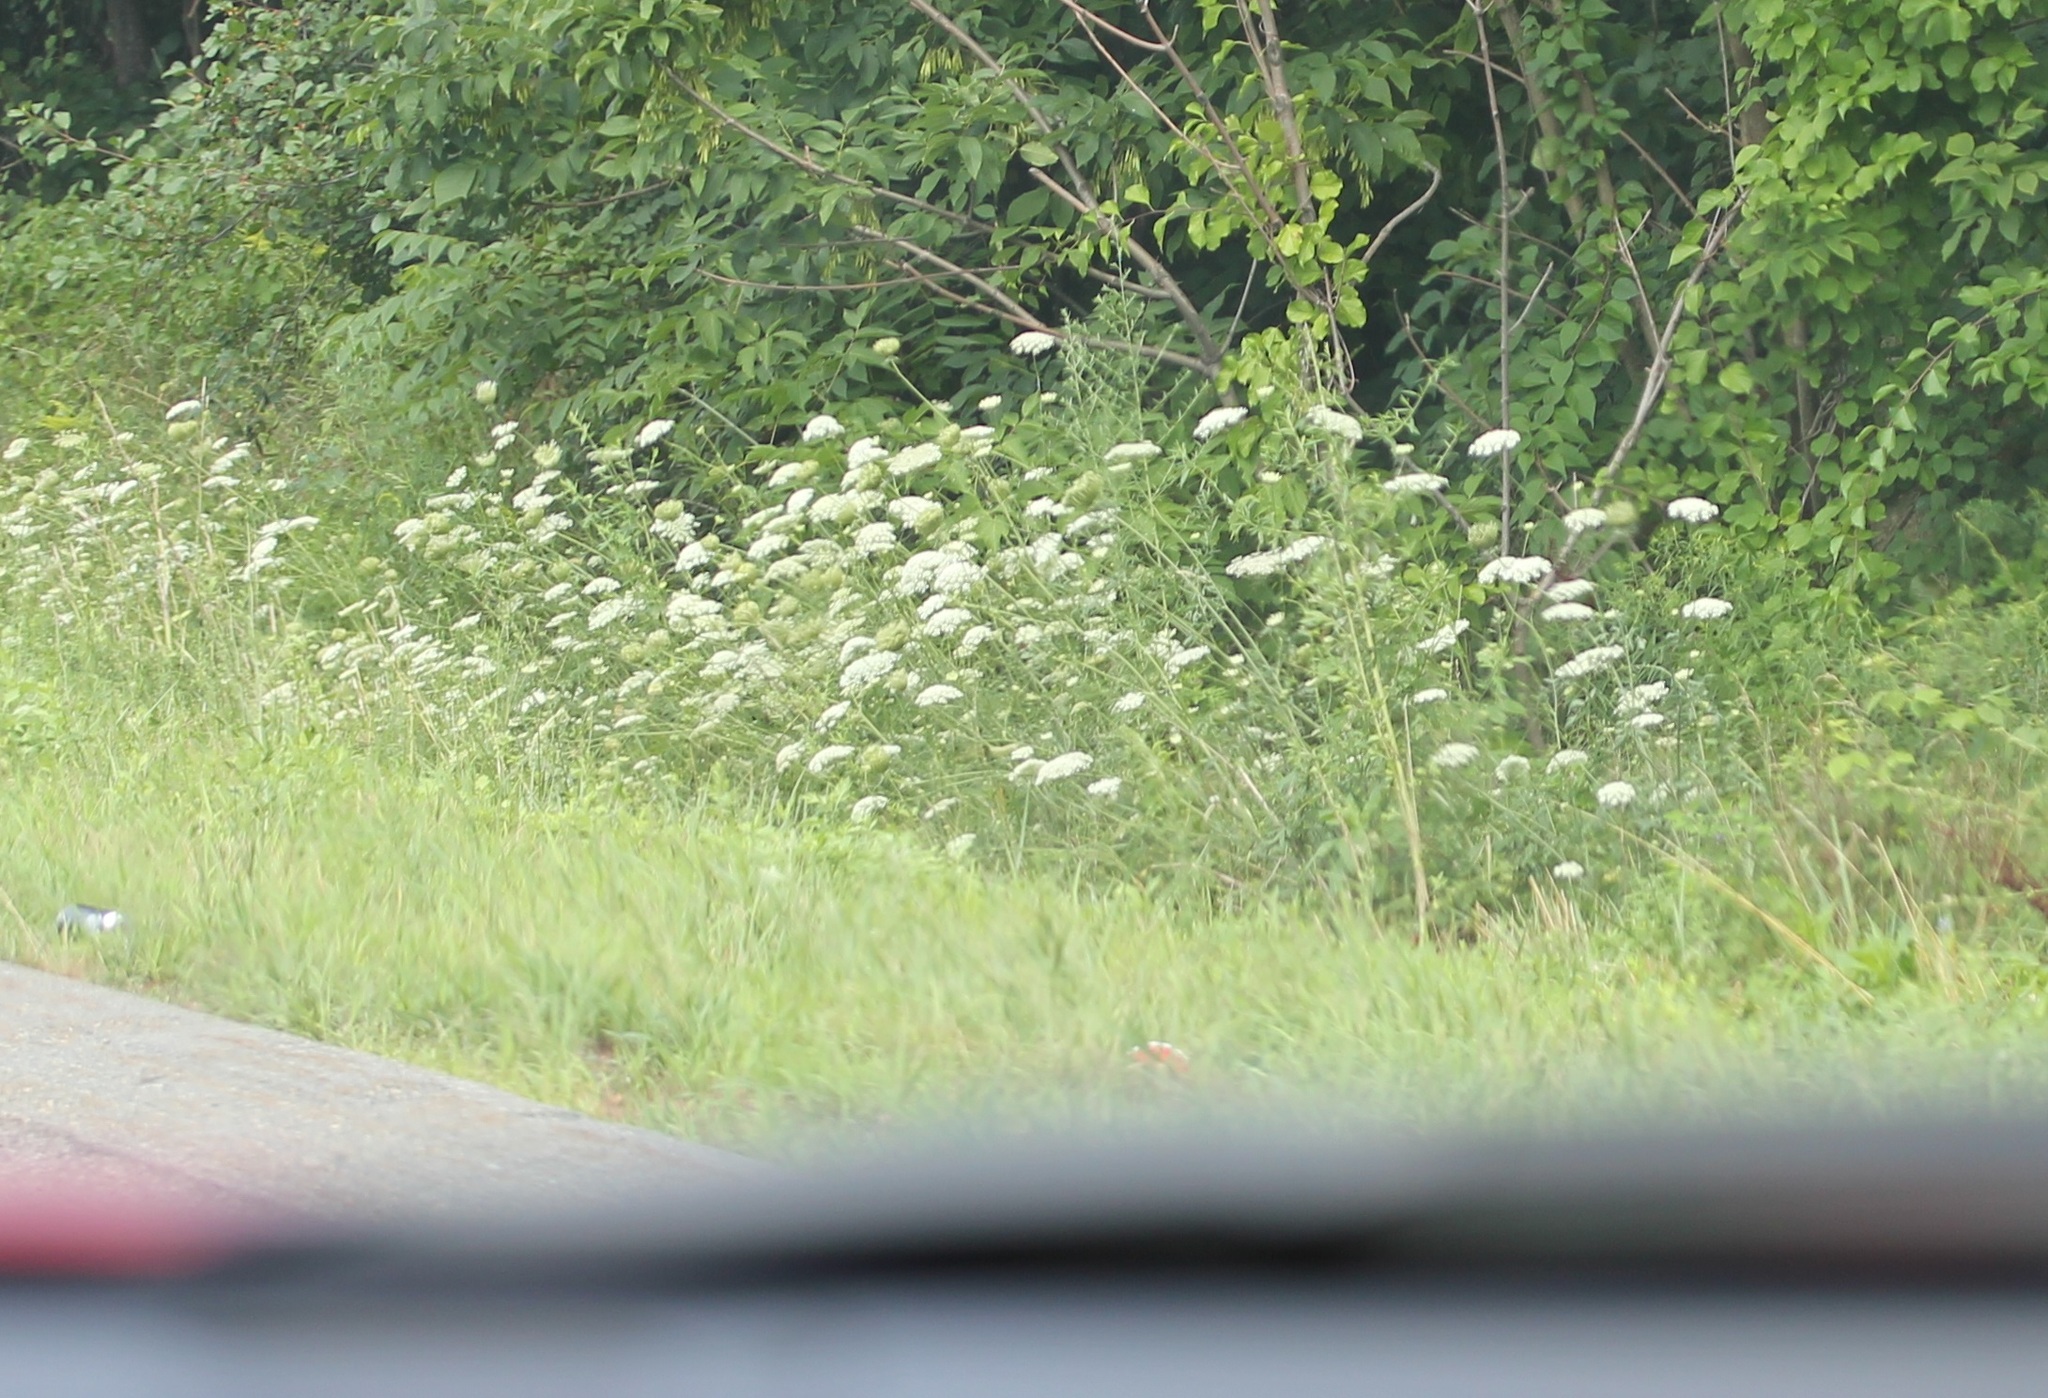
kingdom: Plantae
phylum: Tracheophyta
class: Magnoliopsida
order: Apiales
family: Apiaceae
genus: Daucus
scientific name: Daucus carota
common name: Wild carrot
